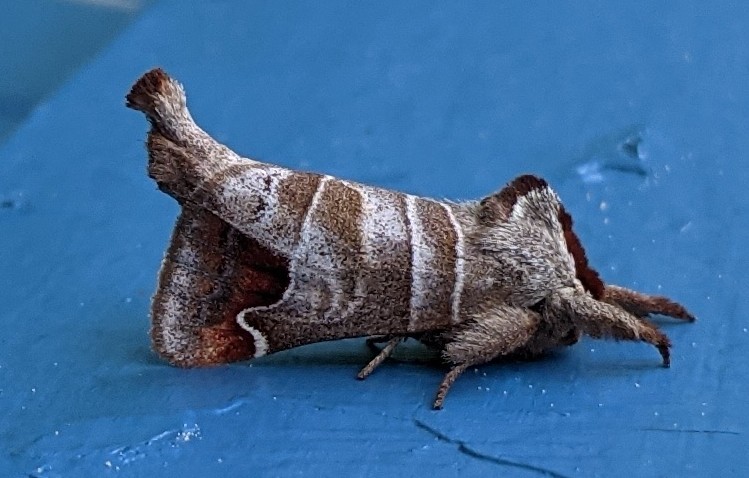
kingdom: Animalia
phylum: Arthropoda
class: Insecta
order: Lepidoptera
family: Notodontidae
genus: Clostera
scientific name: Clostera albosigma
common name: Sigmoid prominent
